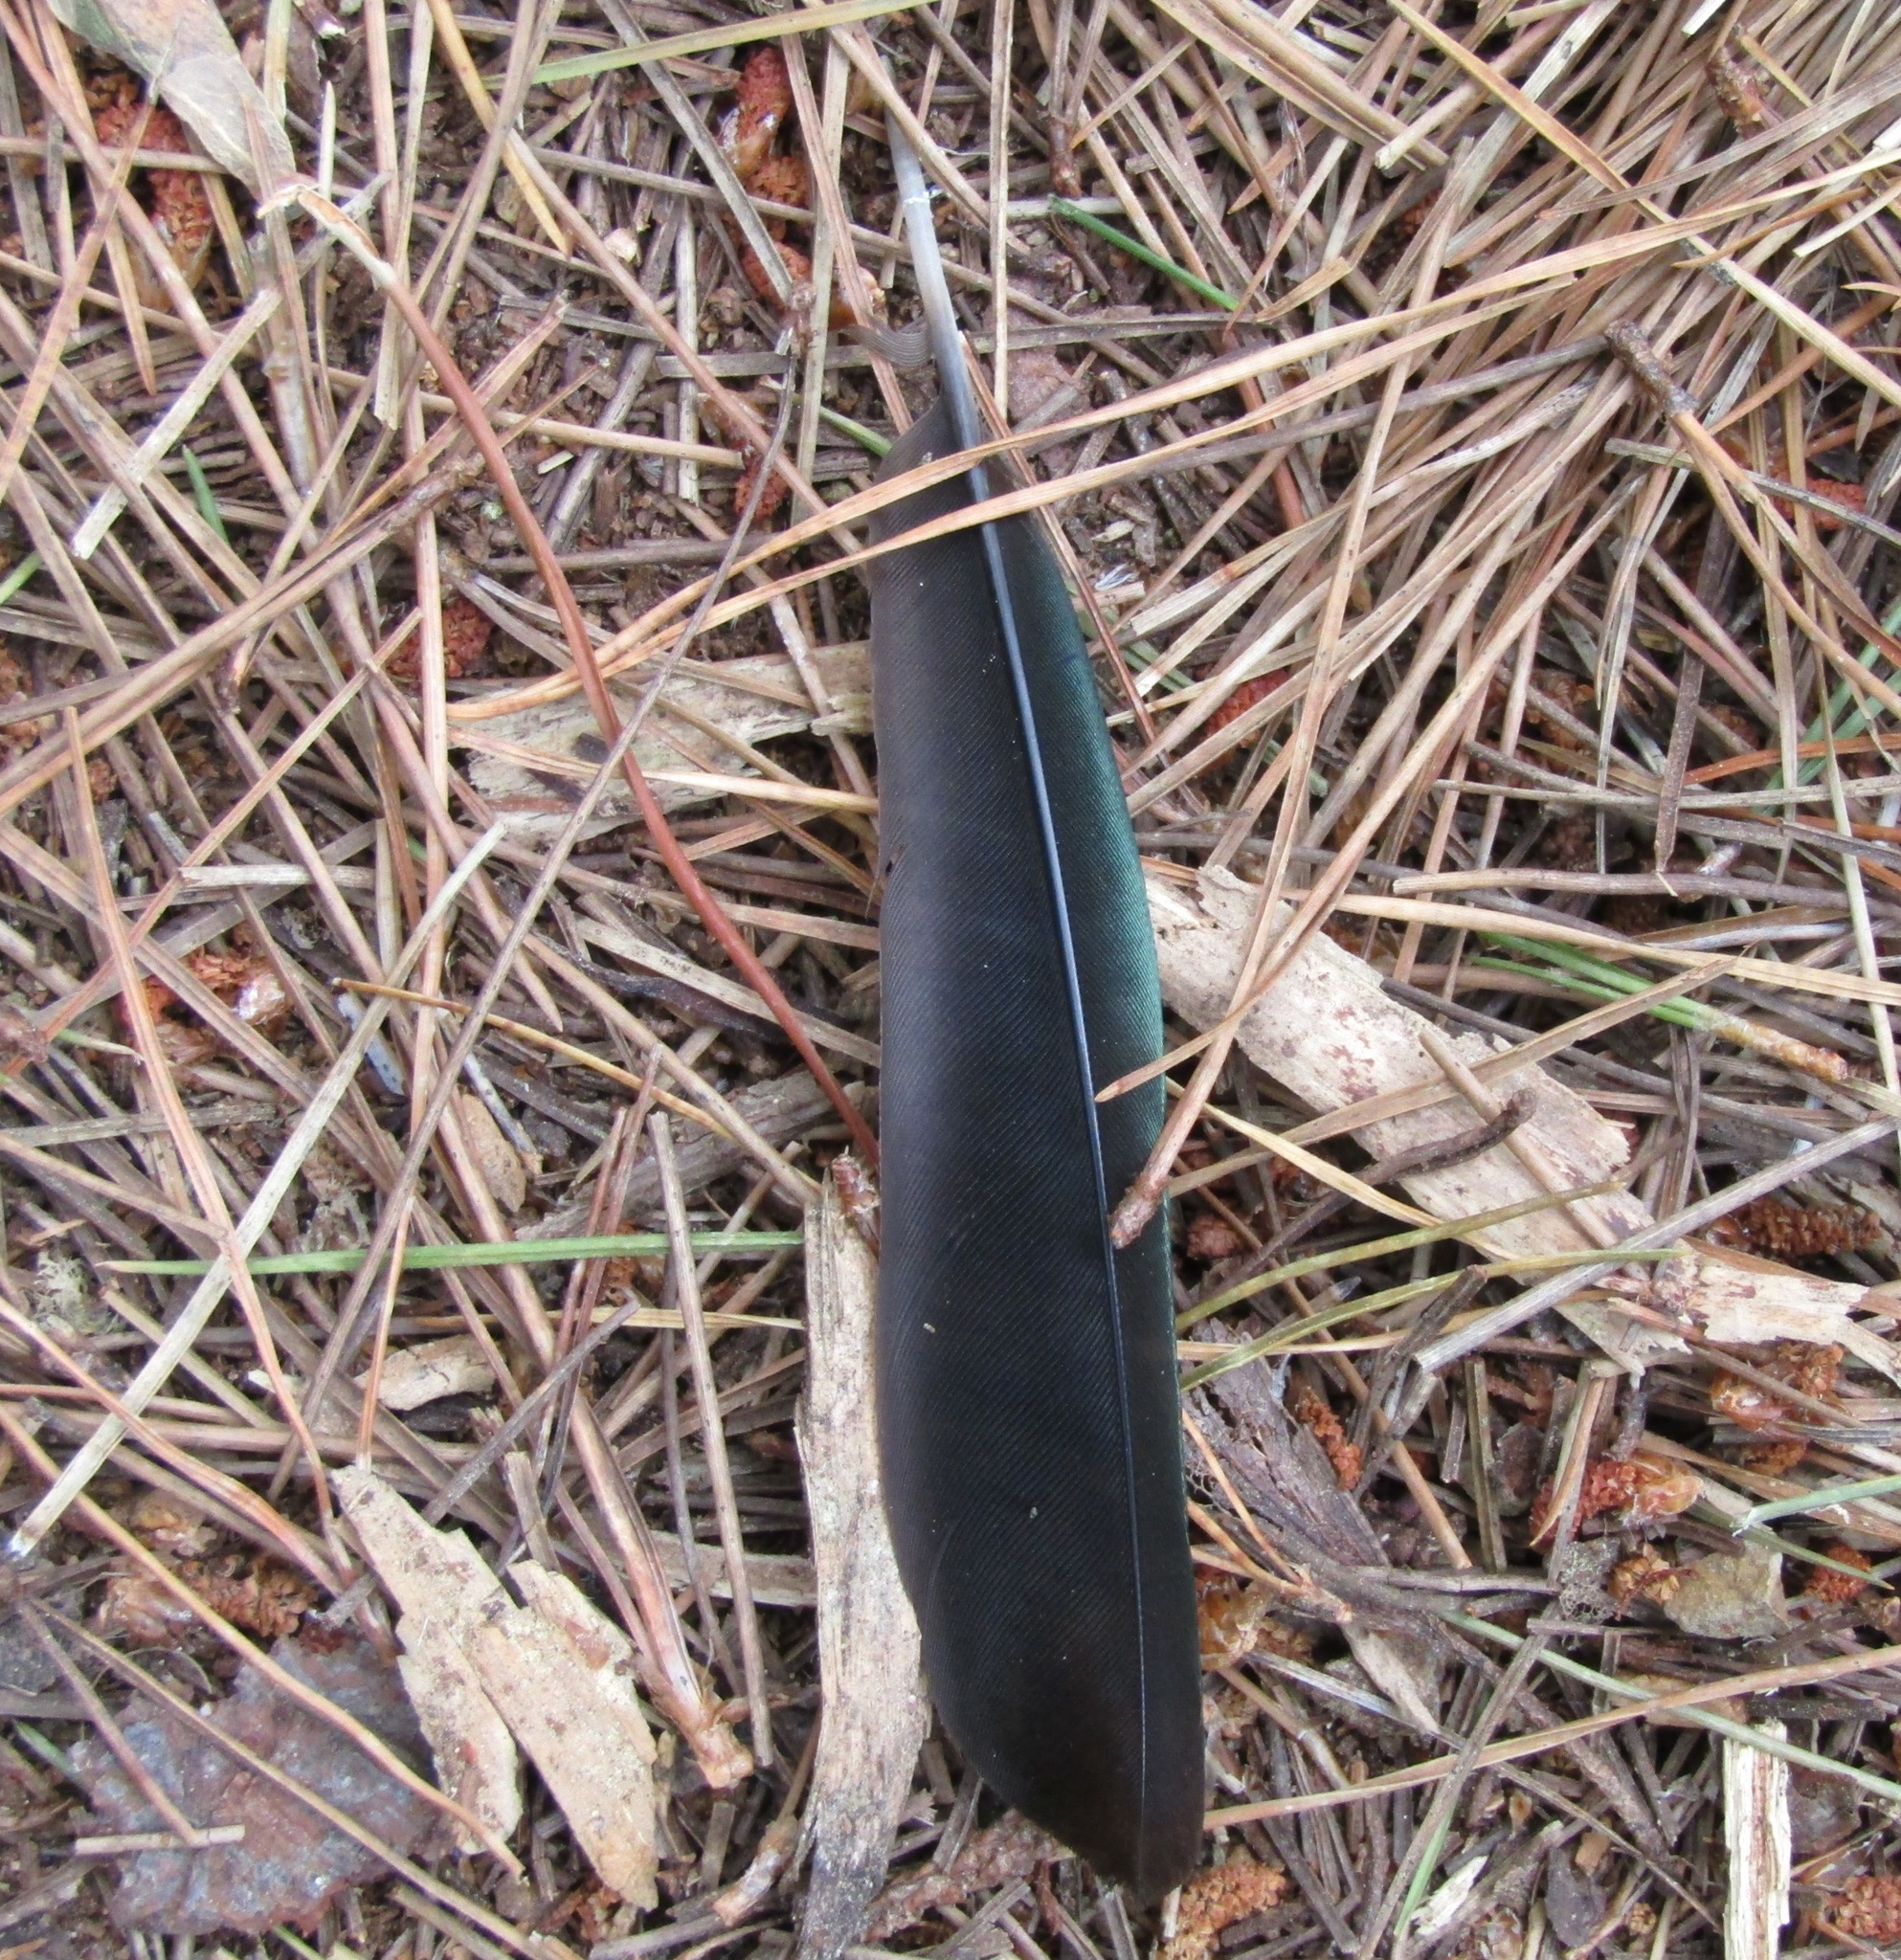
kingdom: Animalia
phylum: Chordata
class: Aves
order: Passeriformes
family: Meliphagidae
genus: Prosthemadera
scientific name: Prosthemadera novaeseelandiae
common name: Tui
